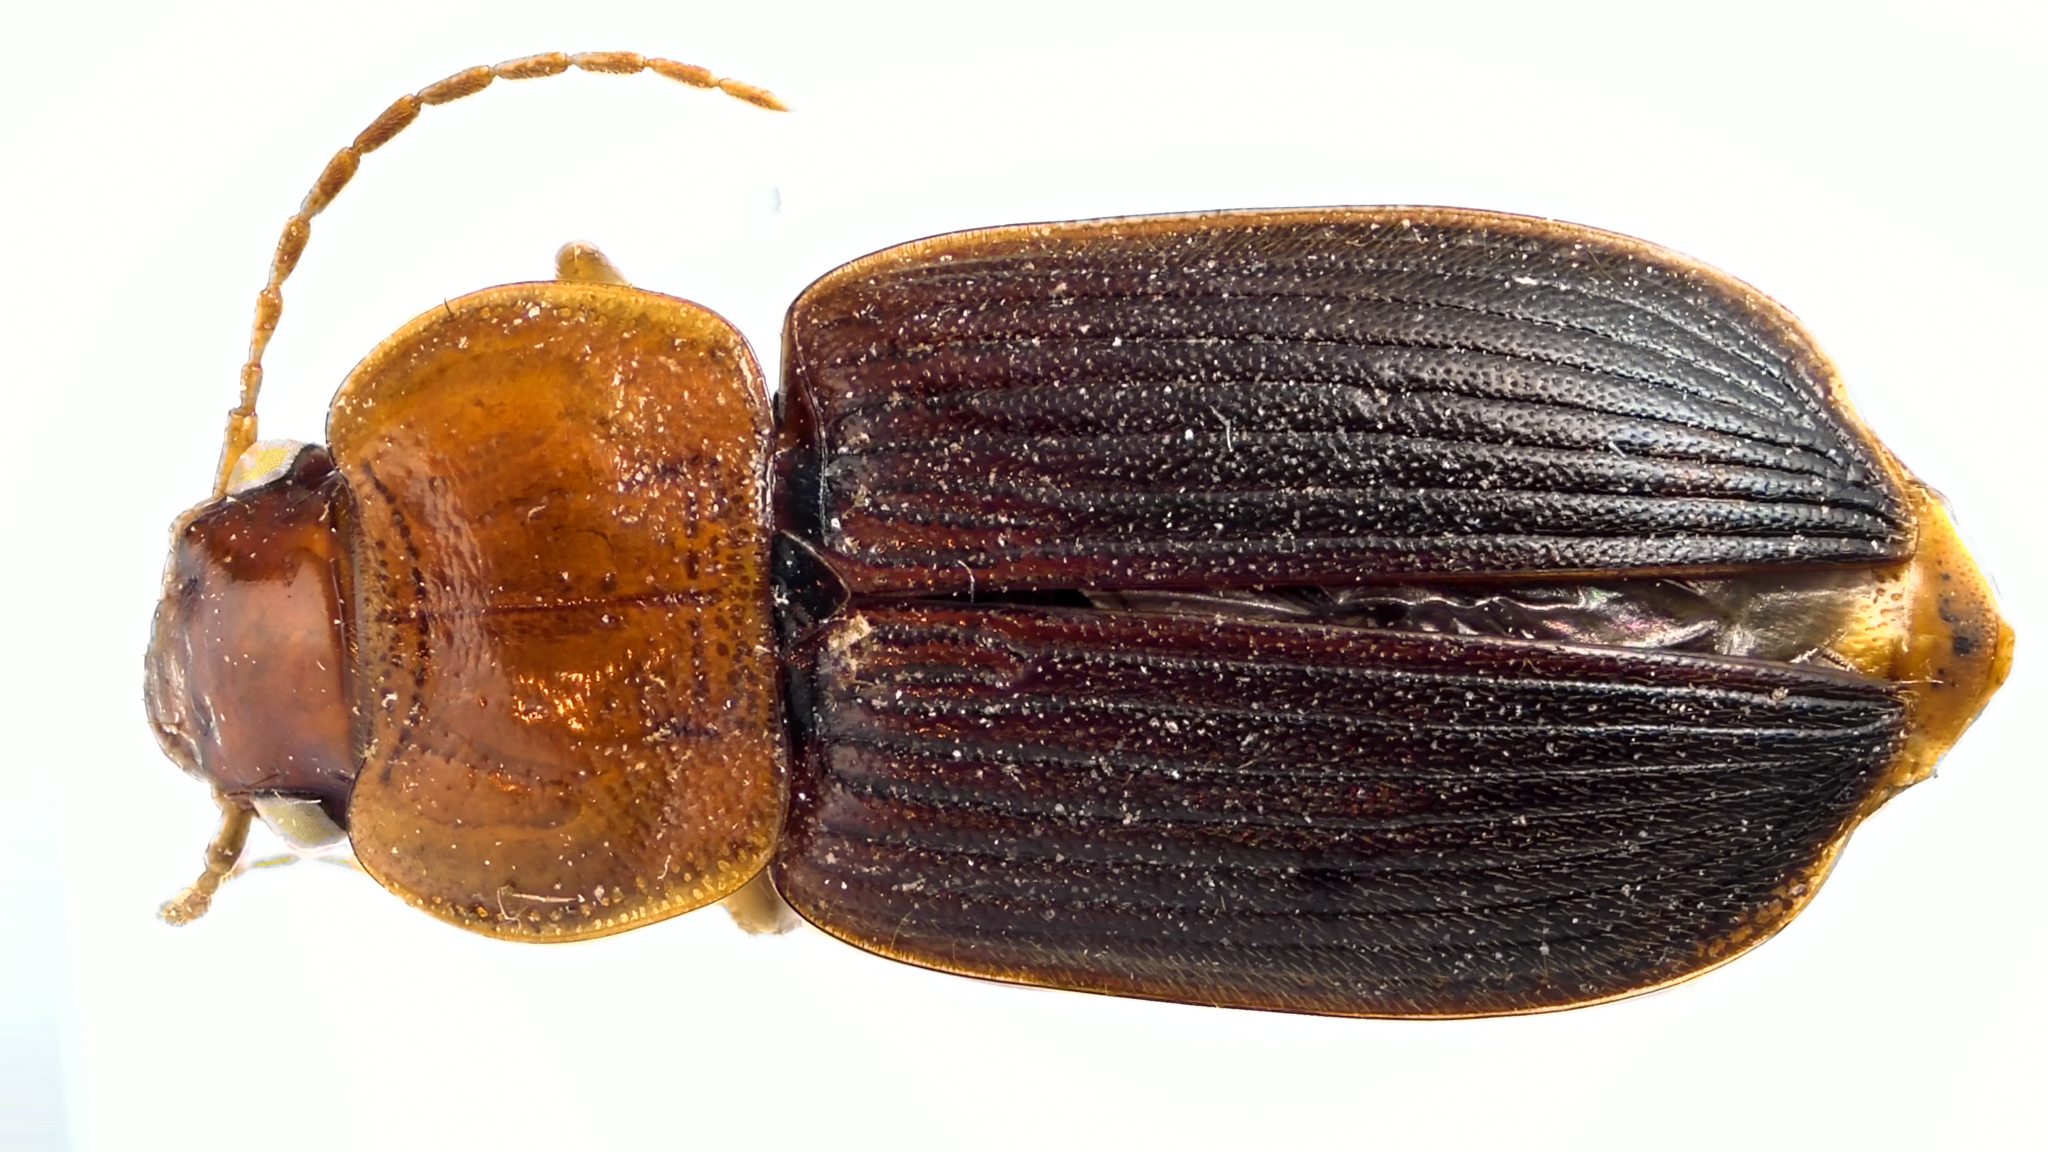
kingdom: Animalia
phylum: Arthropoda
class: Insecta
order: Coleoptera
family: Carabidae
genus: Amphasia
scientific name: Amphasia interstitialis
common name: Red-headed ground beetle
